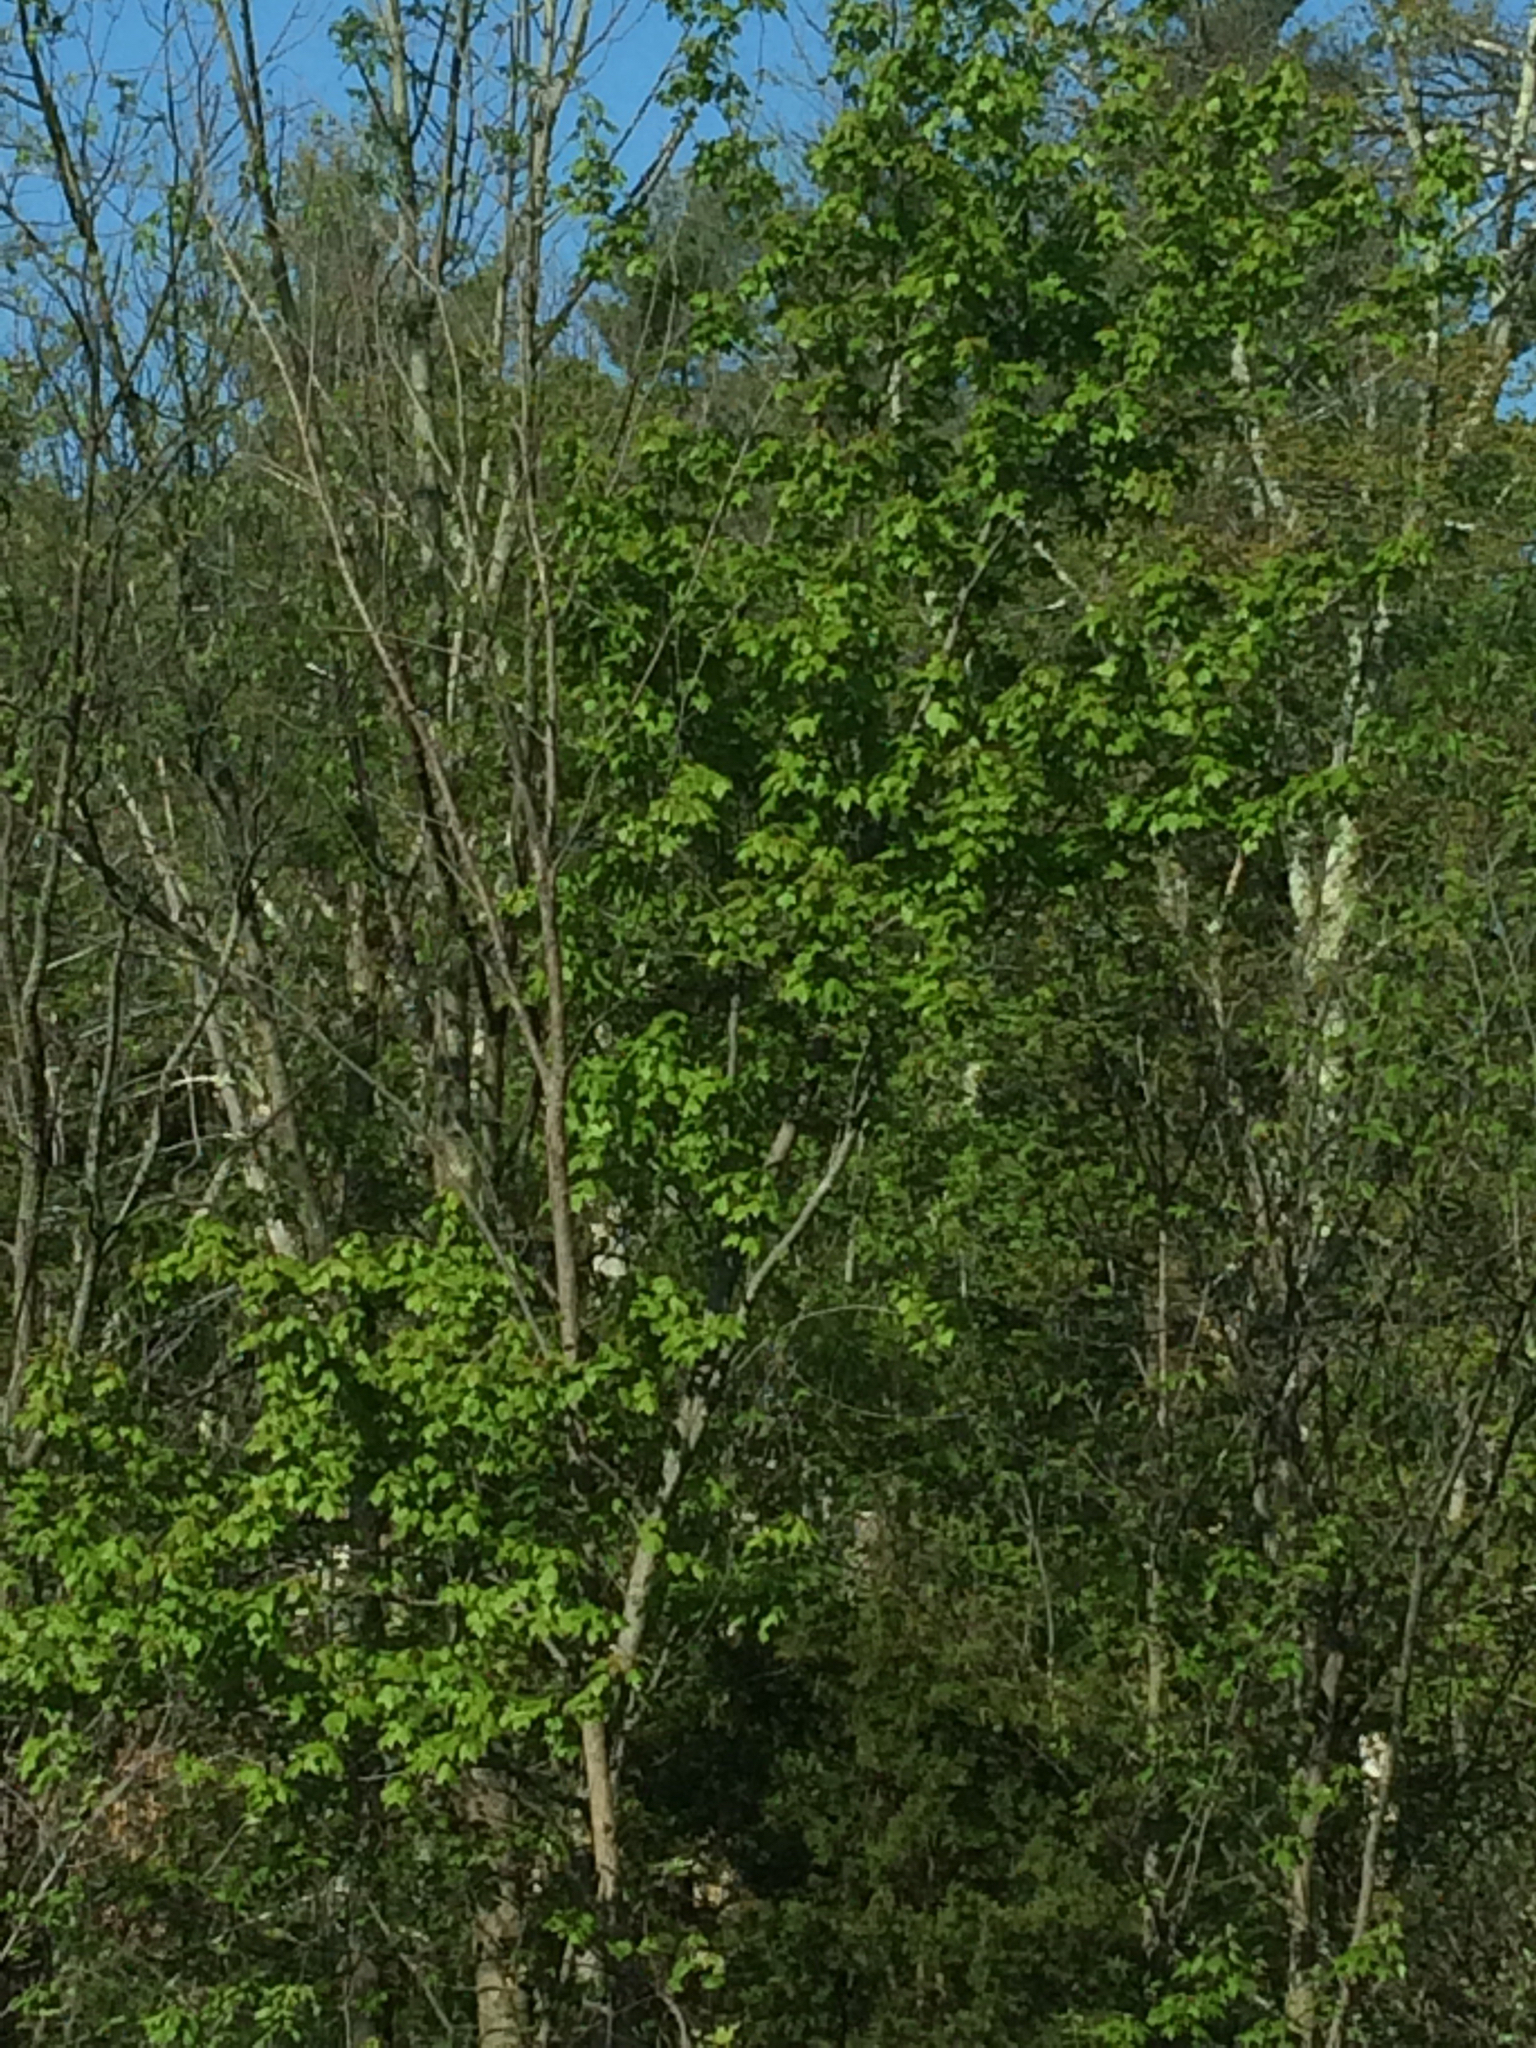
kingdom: Plantae
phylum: Tracheophyta
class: Magnoliopsida
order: Sapindales
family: Sapindaceae
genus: Acer
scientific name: Acer rubrum
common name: Red maple
